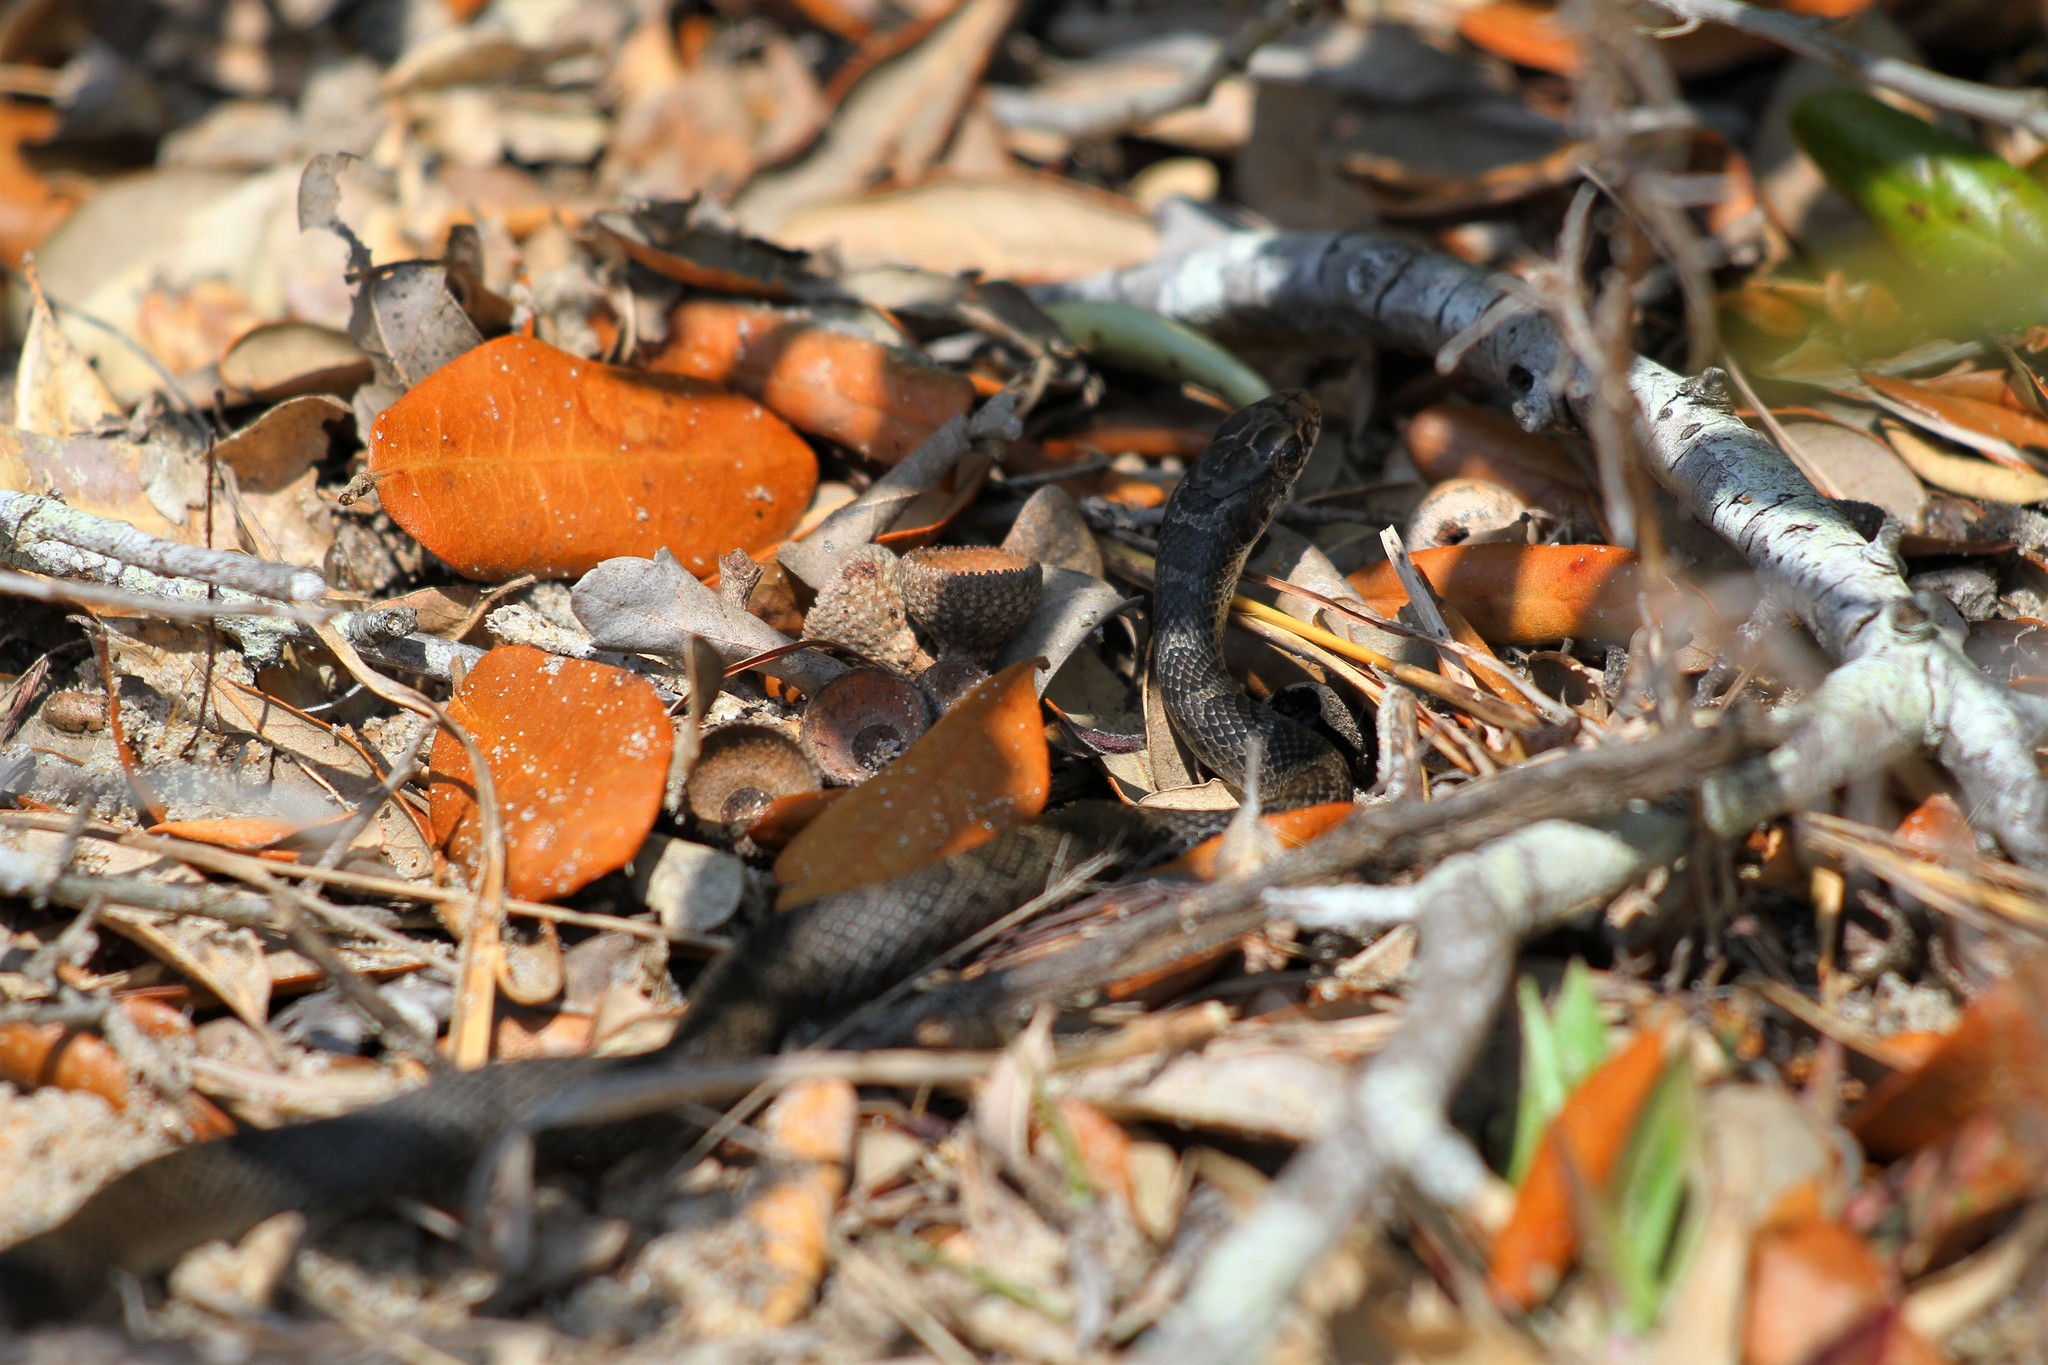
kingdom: Animalia
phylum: Chordata
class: Squamata
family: Colubridae
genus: Coluber
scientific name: Coluber constrictor
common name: Eastern racer
